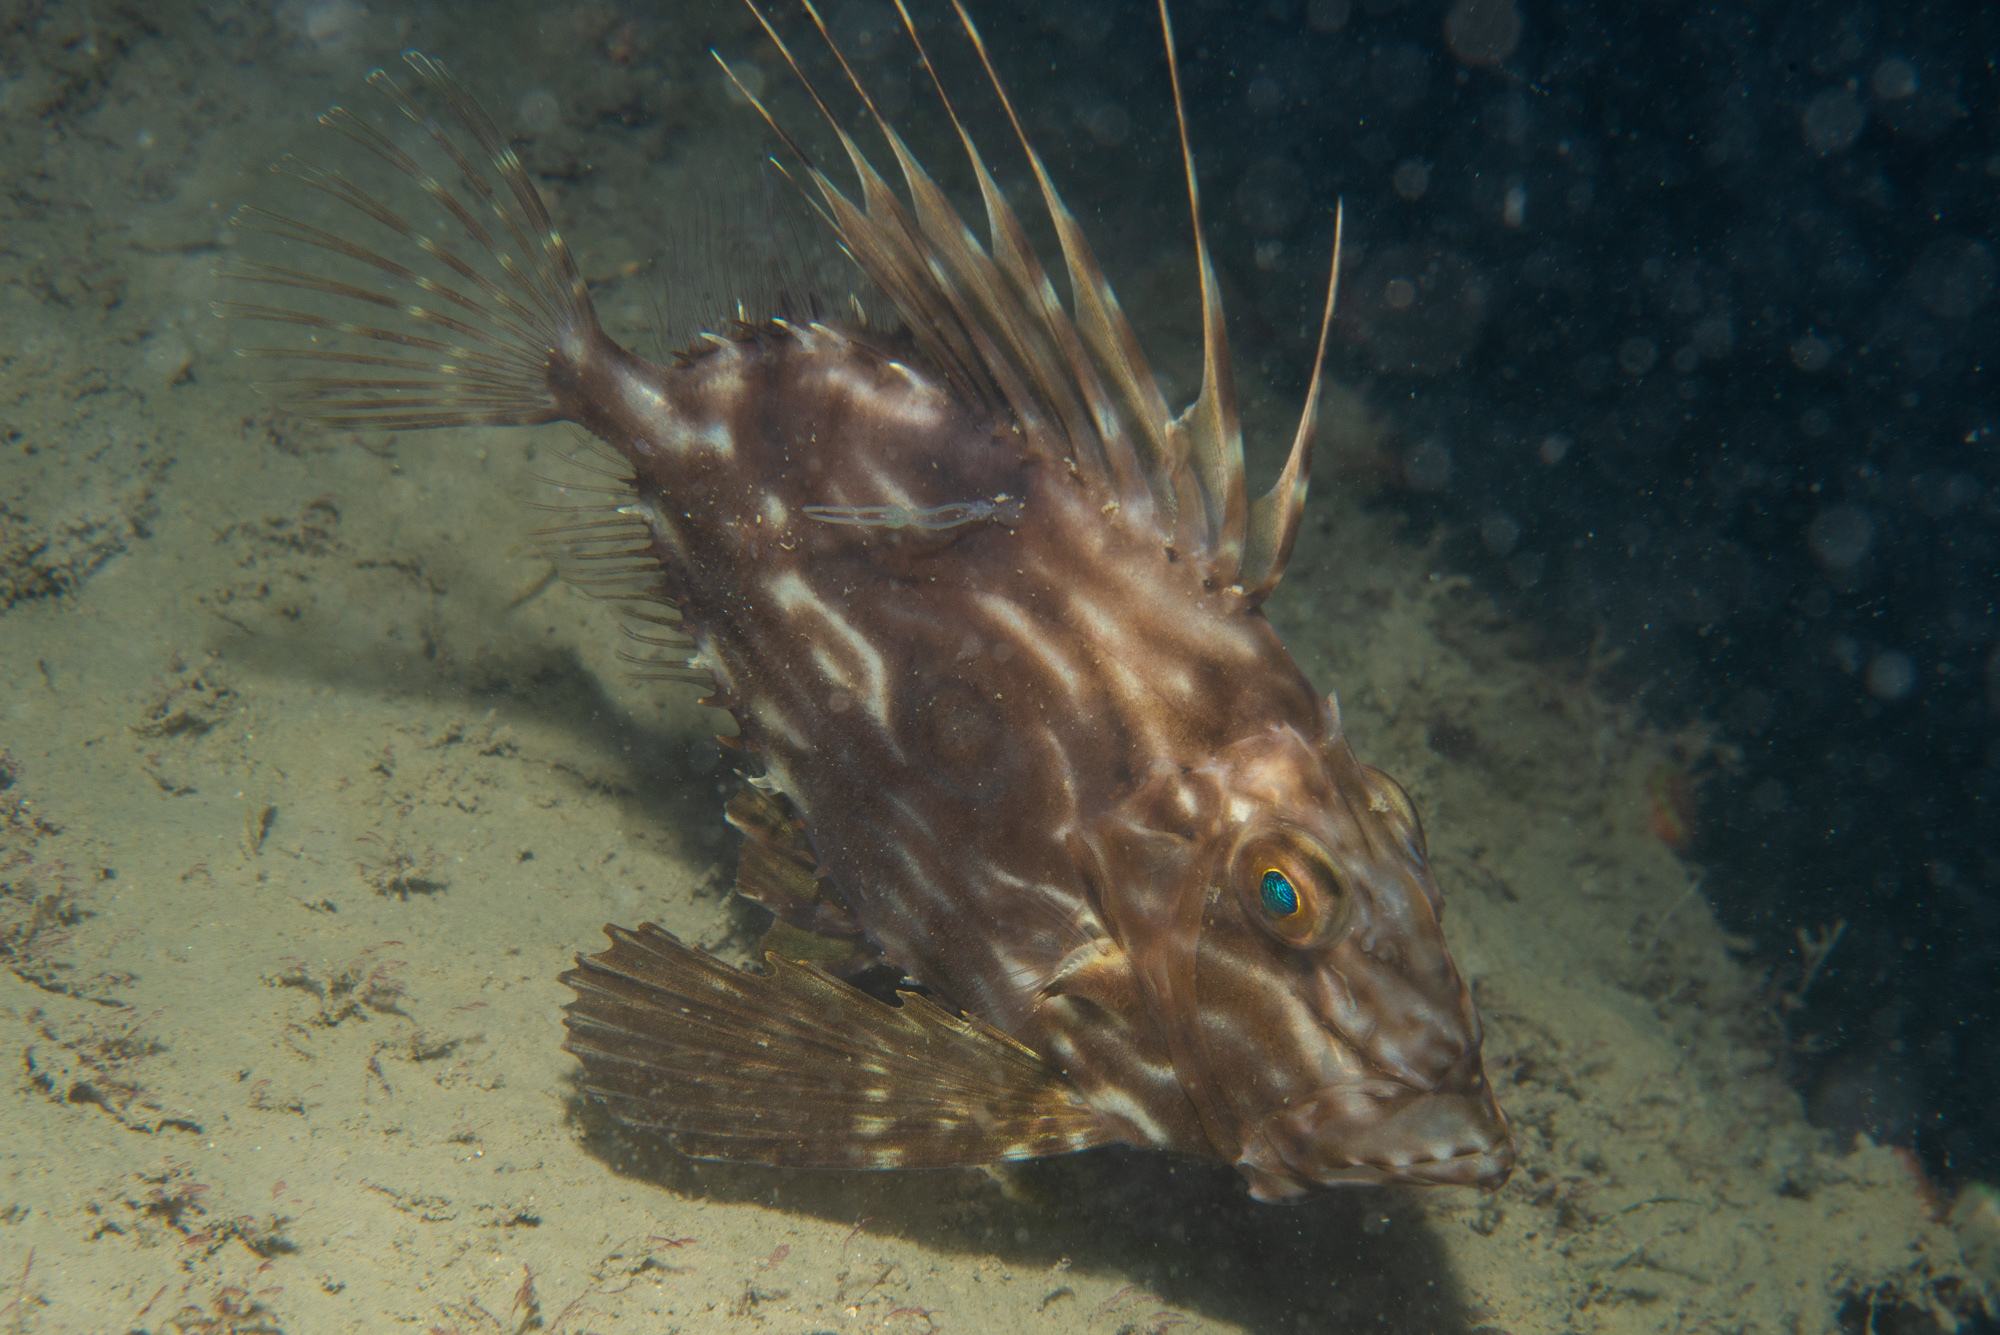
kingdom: Animalia
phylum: Chordata
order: Zeiformes
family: Zeidae
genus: Zeus
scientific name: Zeus faber
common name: John dory
